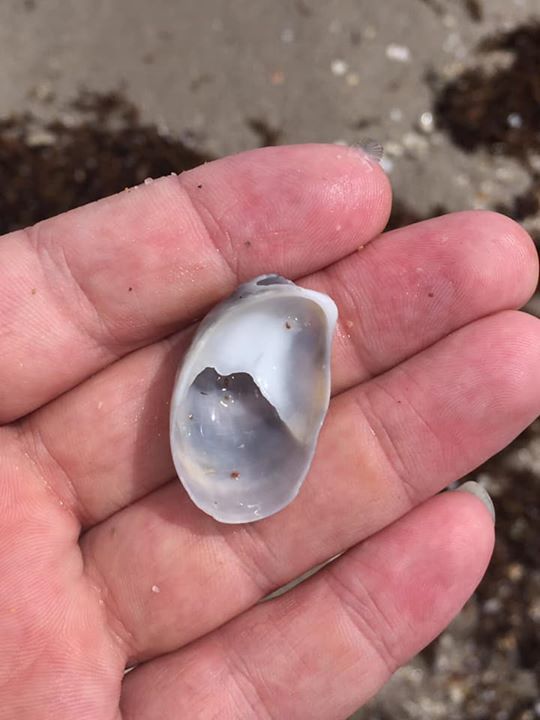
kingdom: Animalia
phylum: Mollusca
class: Gastropoda
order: Littorinimorpha
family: Calyptraeidae
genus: Crepidula
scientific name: Crepidula fornicata
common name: Slipper limpet
